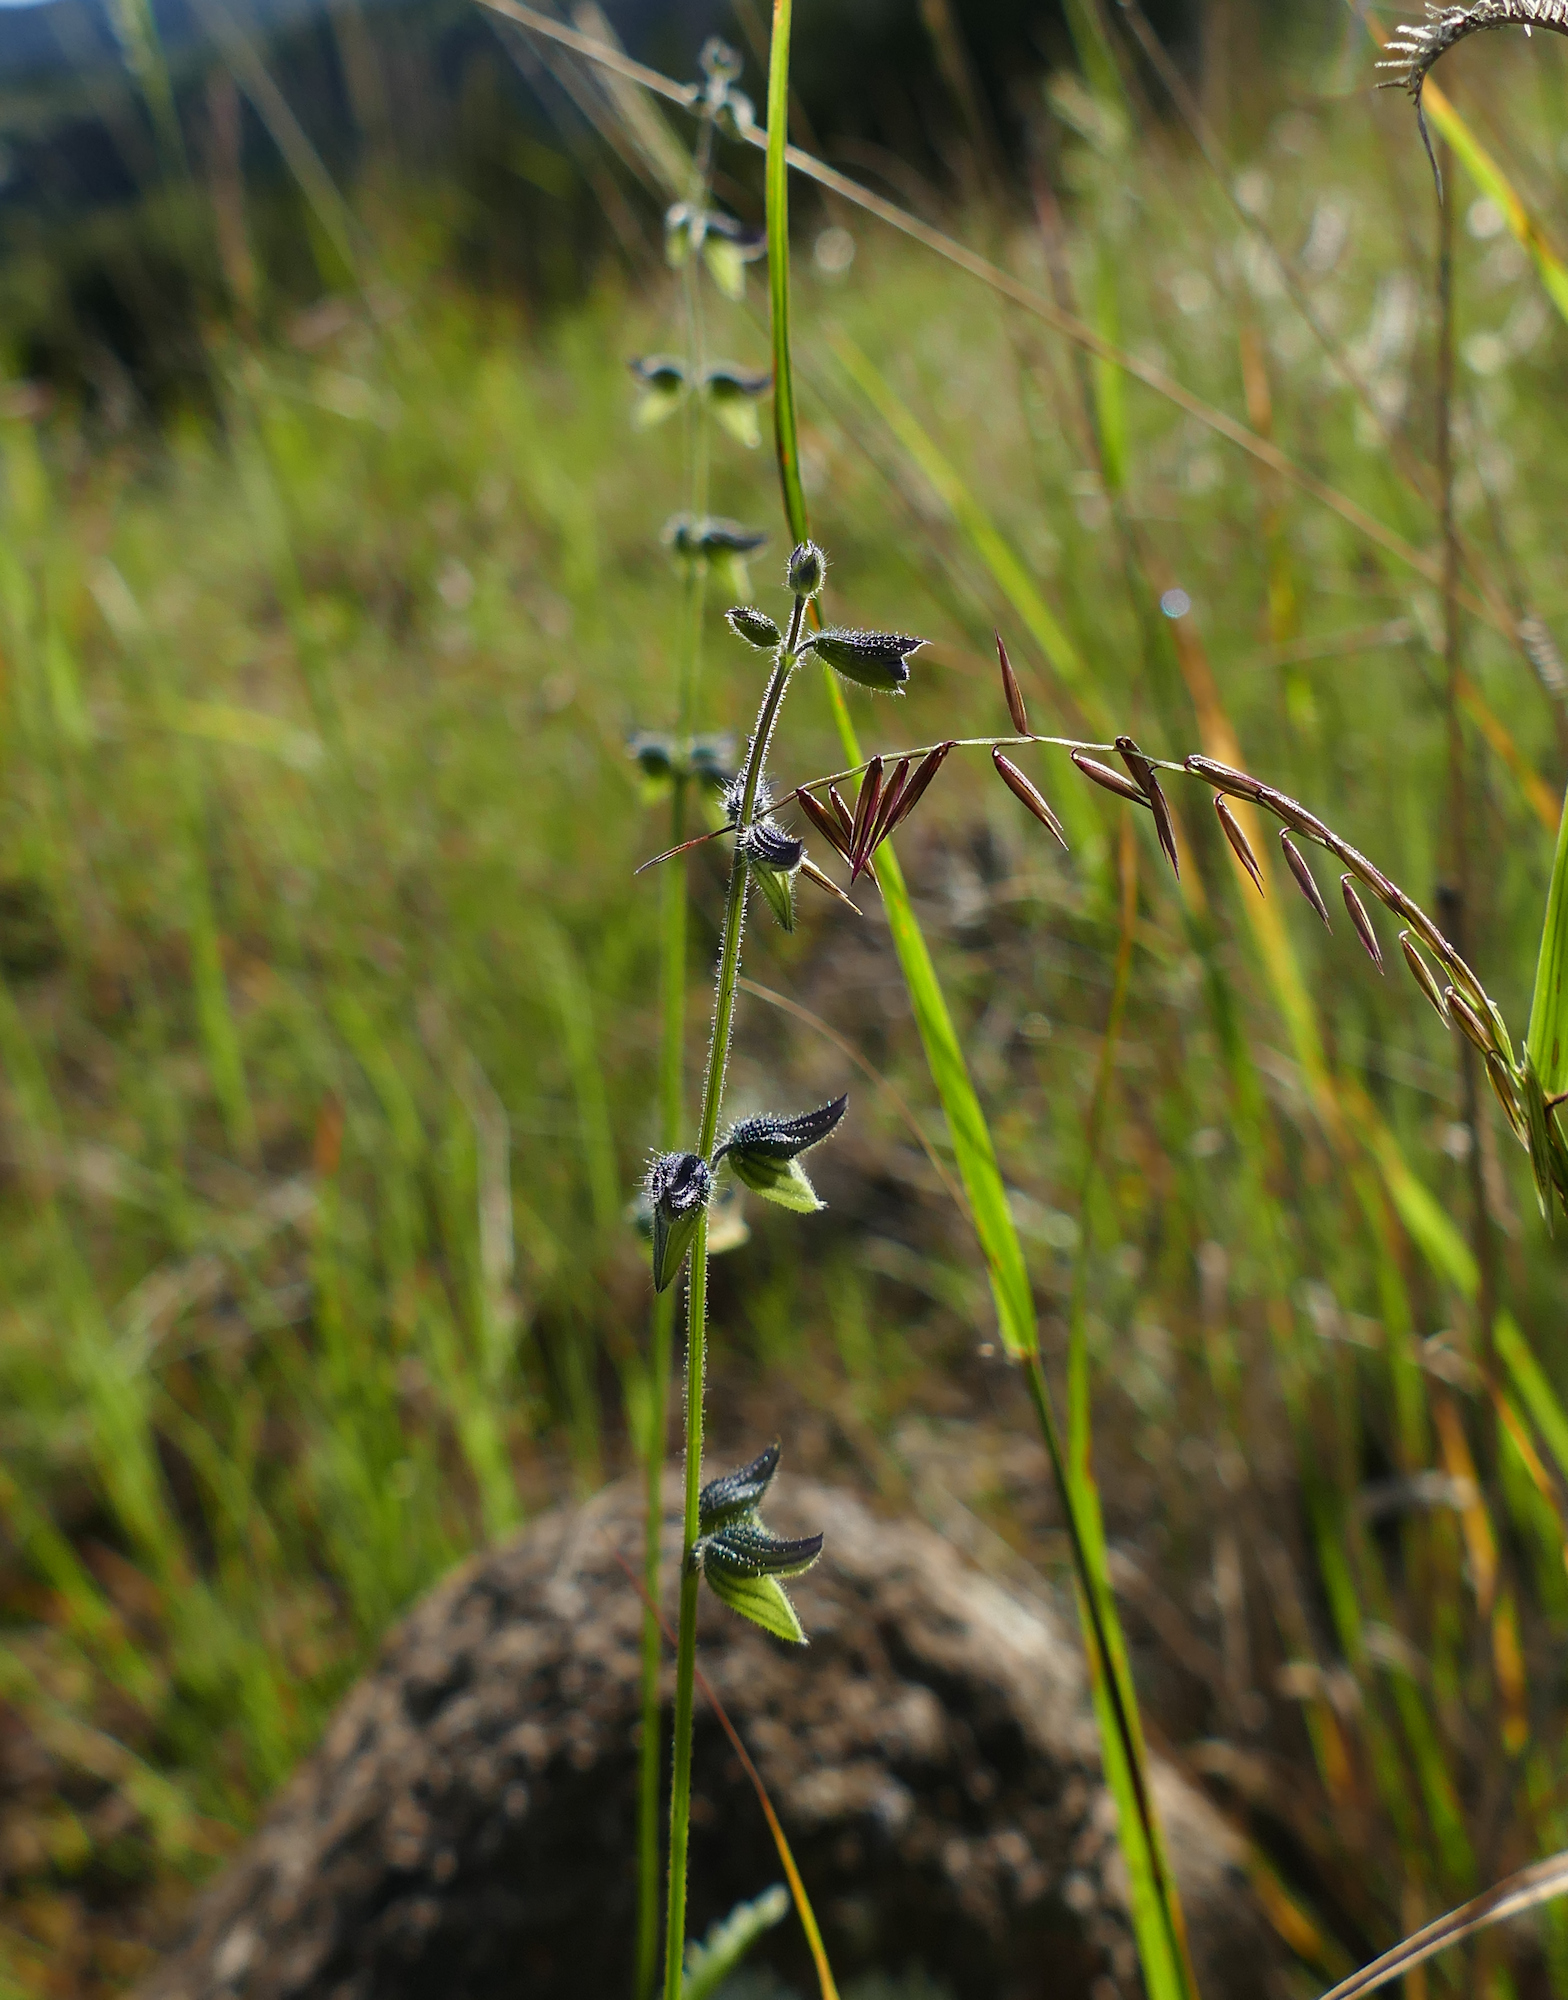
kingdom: Plantae
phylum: Tracheophyta
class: Magnoliopsida
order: Lamiales
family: Lamiaceae
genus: Salvia
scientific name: Salvia subincisa
